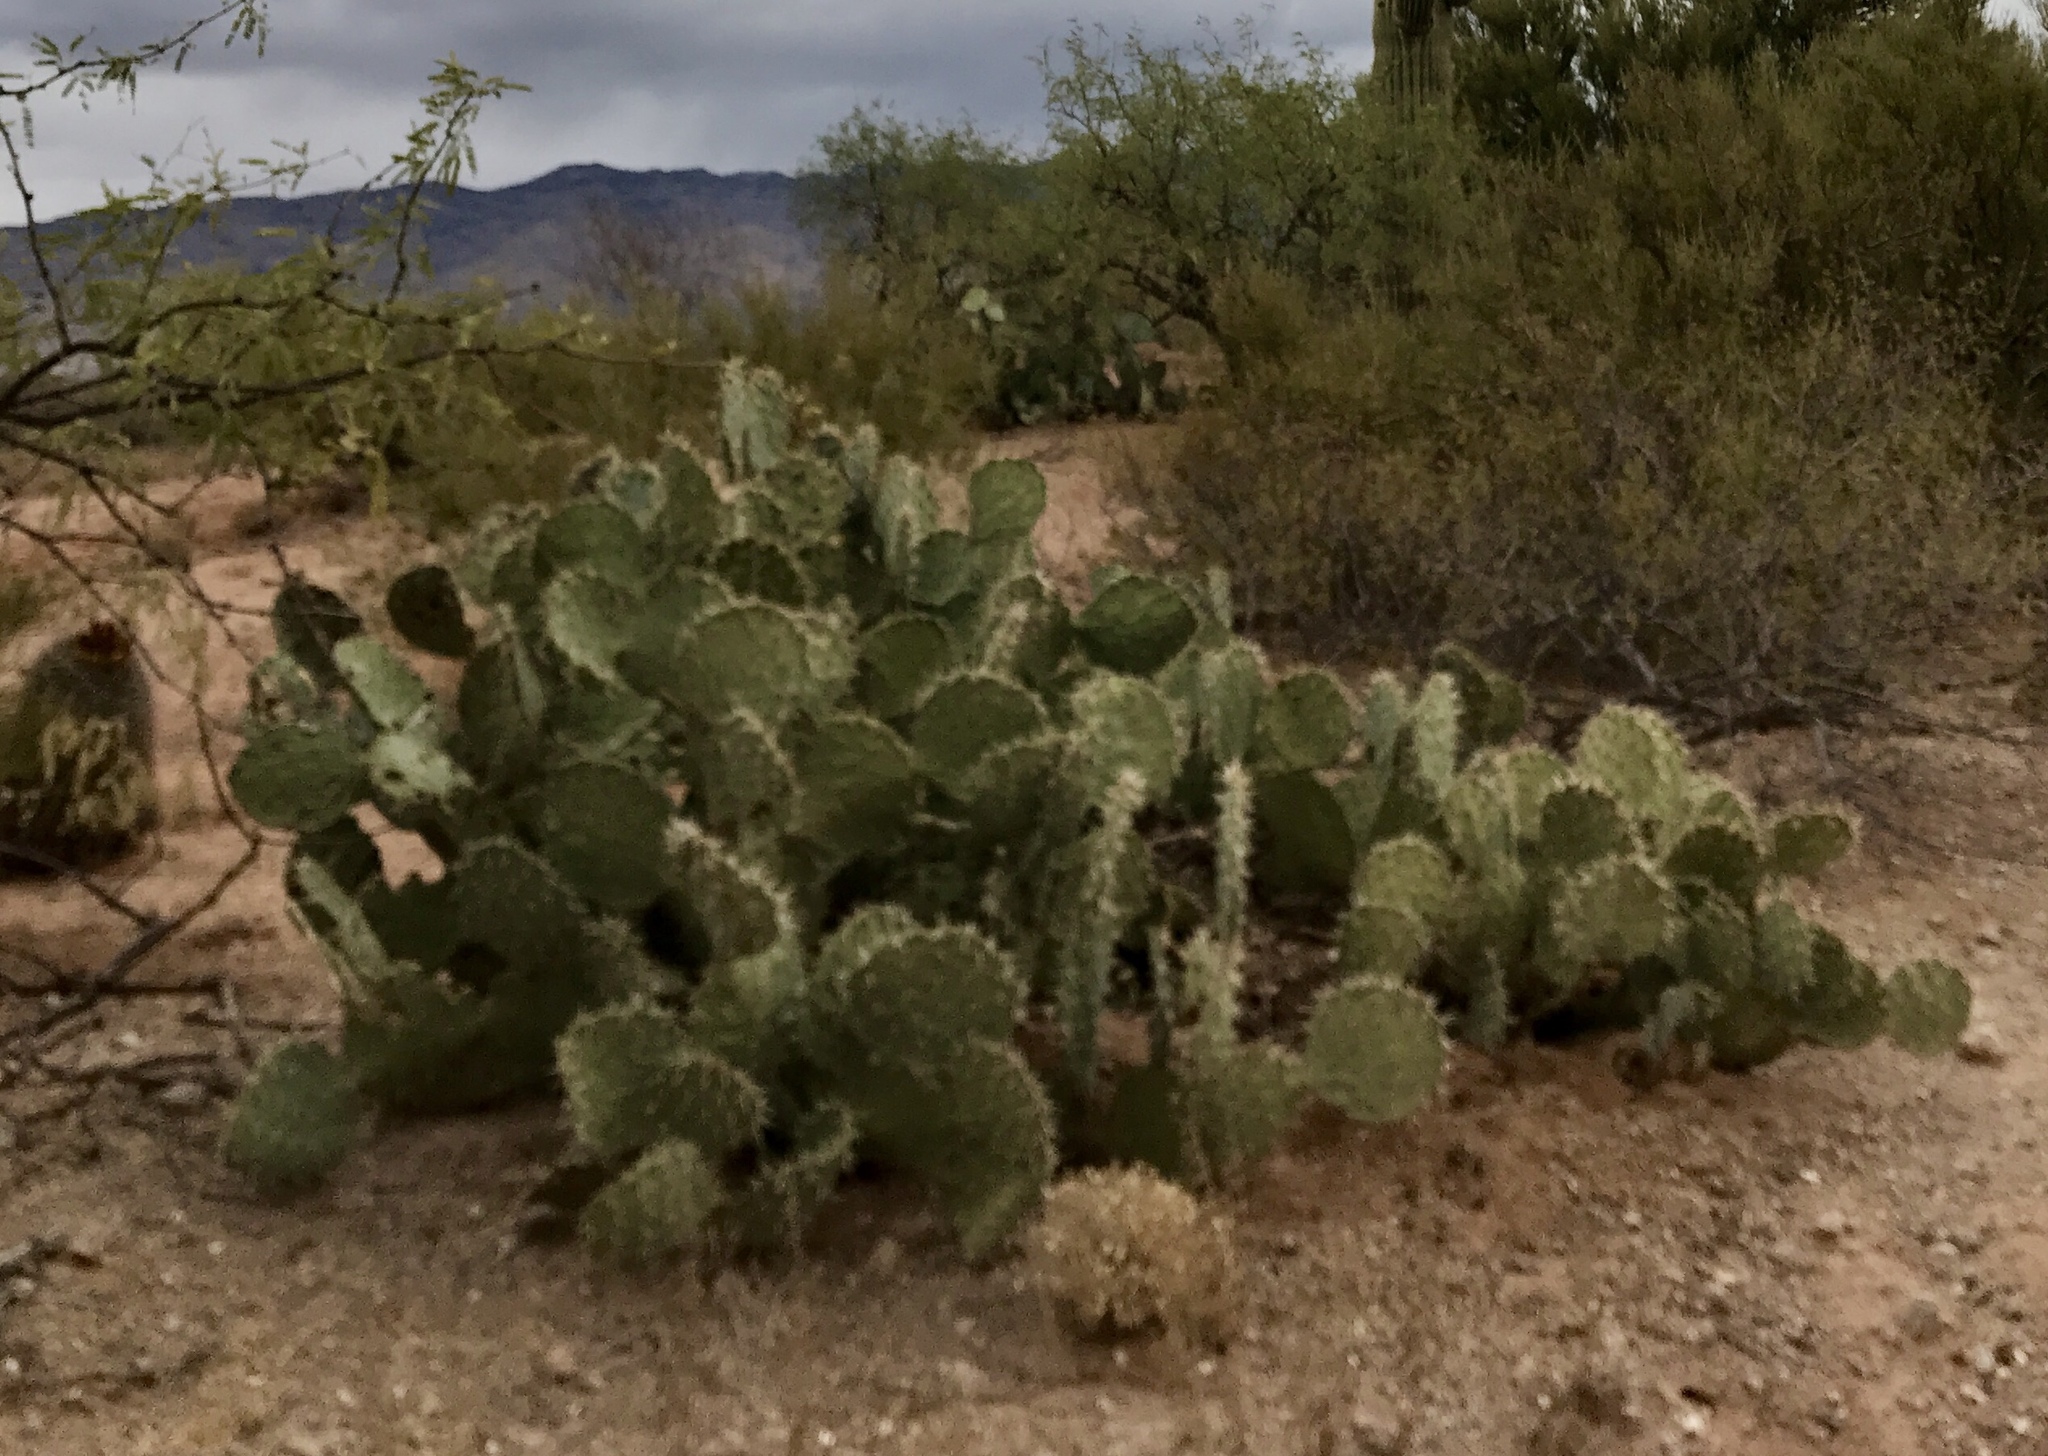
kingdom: Plantae
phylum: Tracheophyta
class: Magnoliopsida
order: Caryophyllales
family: Cactaceae
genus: Opuntia
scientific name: Opuntia engelmannii
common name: Cactus-apple
